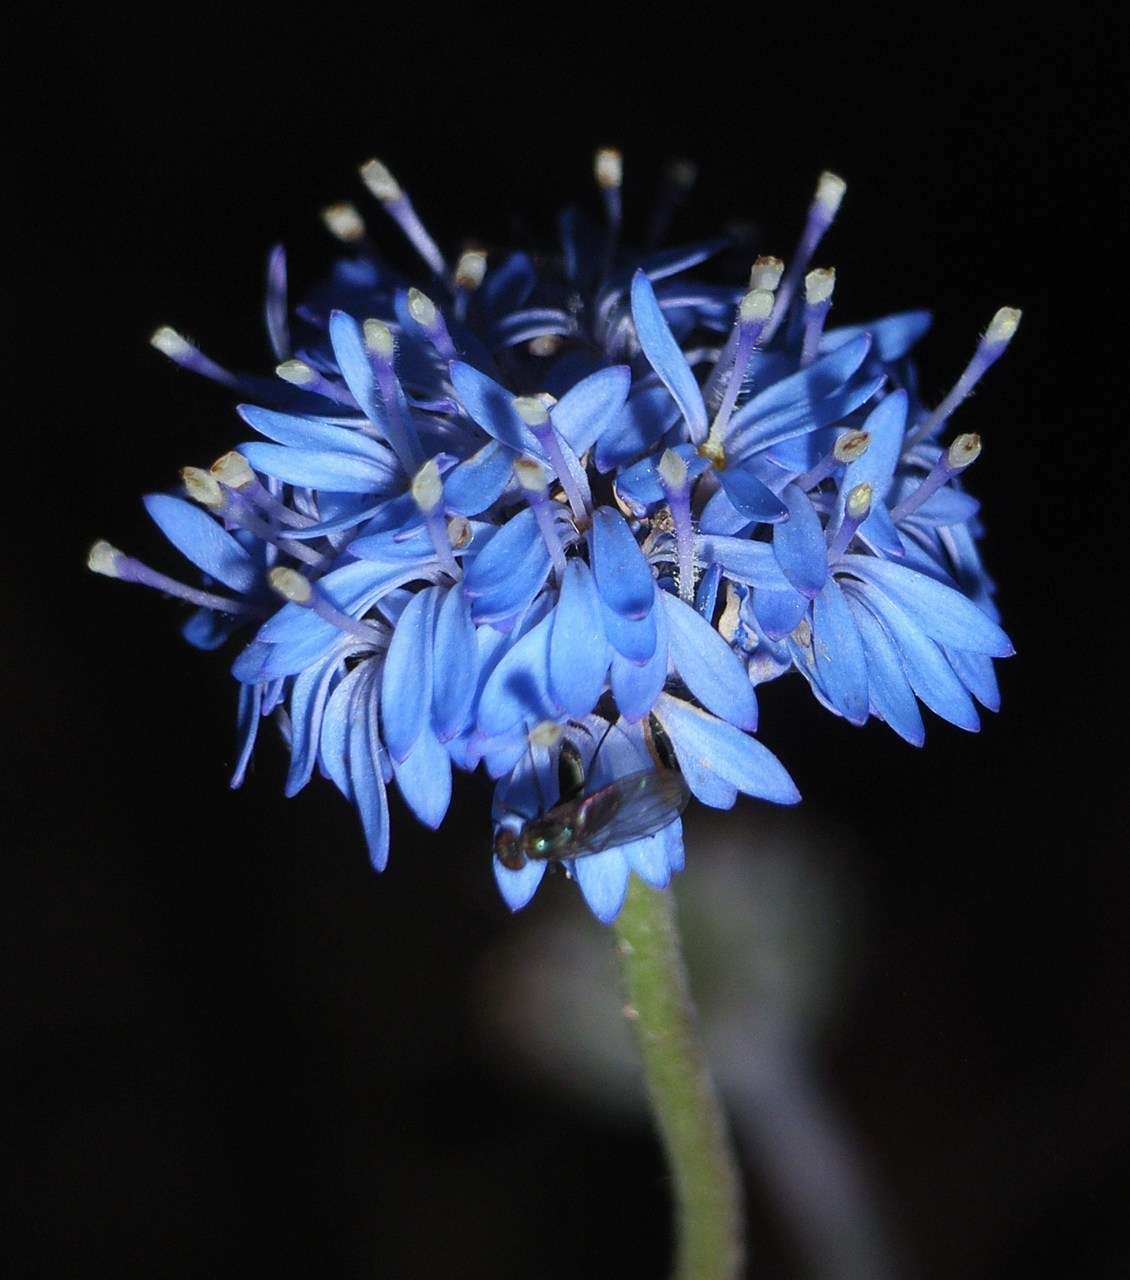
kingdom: Plantae
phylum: Tracheophyta
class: Magnoliopsida
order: Asterales
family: Goodeniaceae
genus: Brunonia
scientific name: Brunonia australis
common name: Blue pincushion
